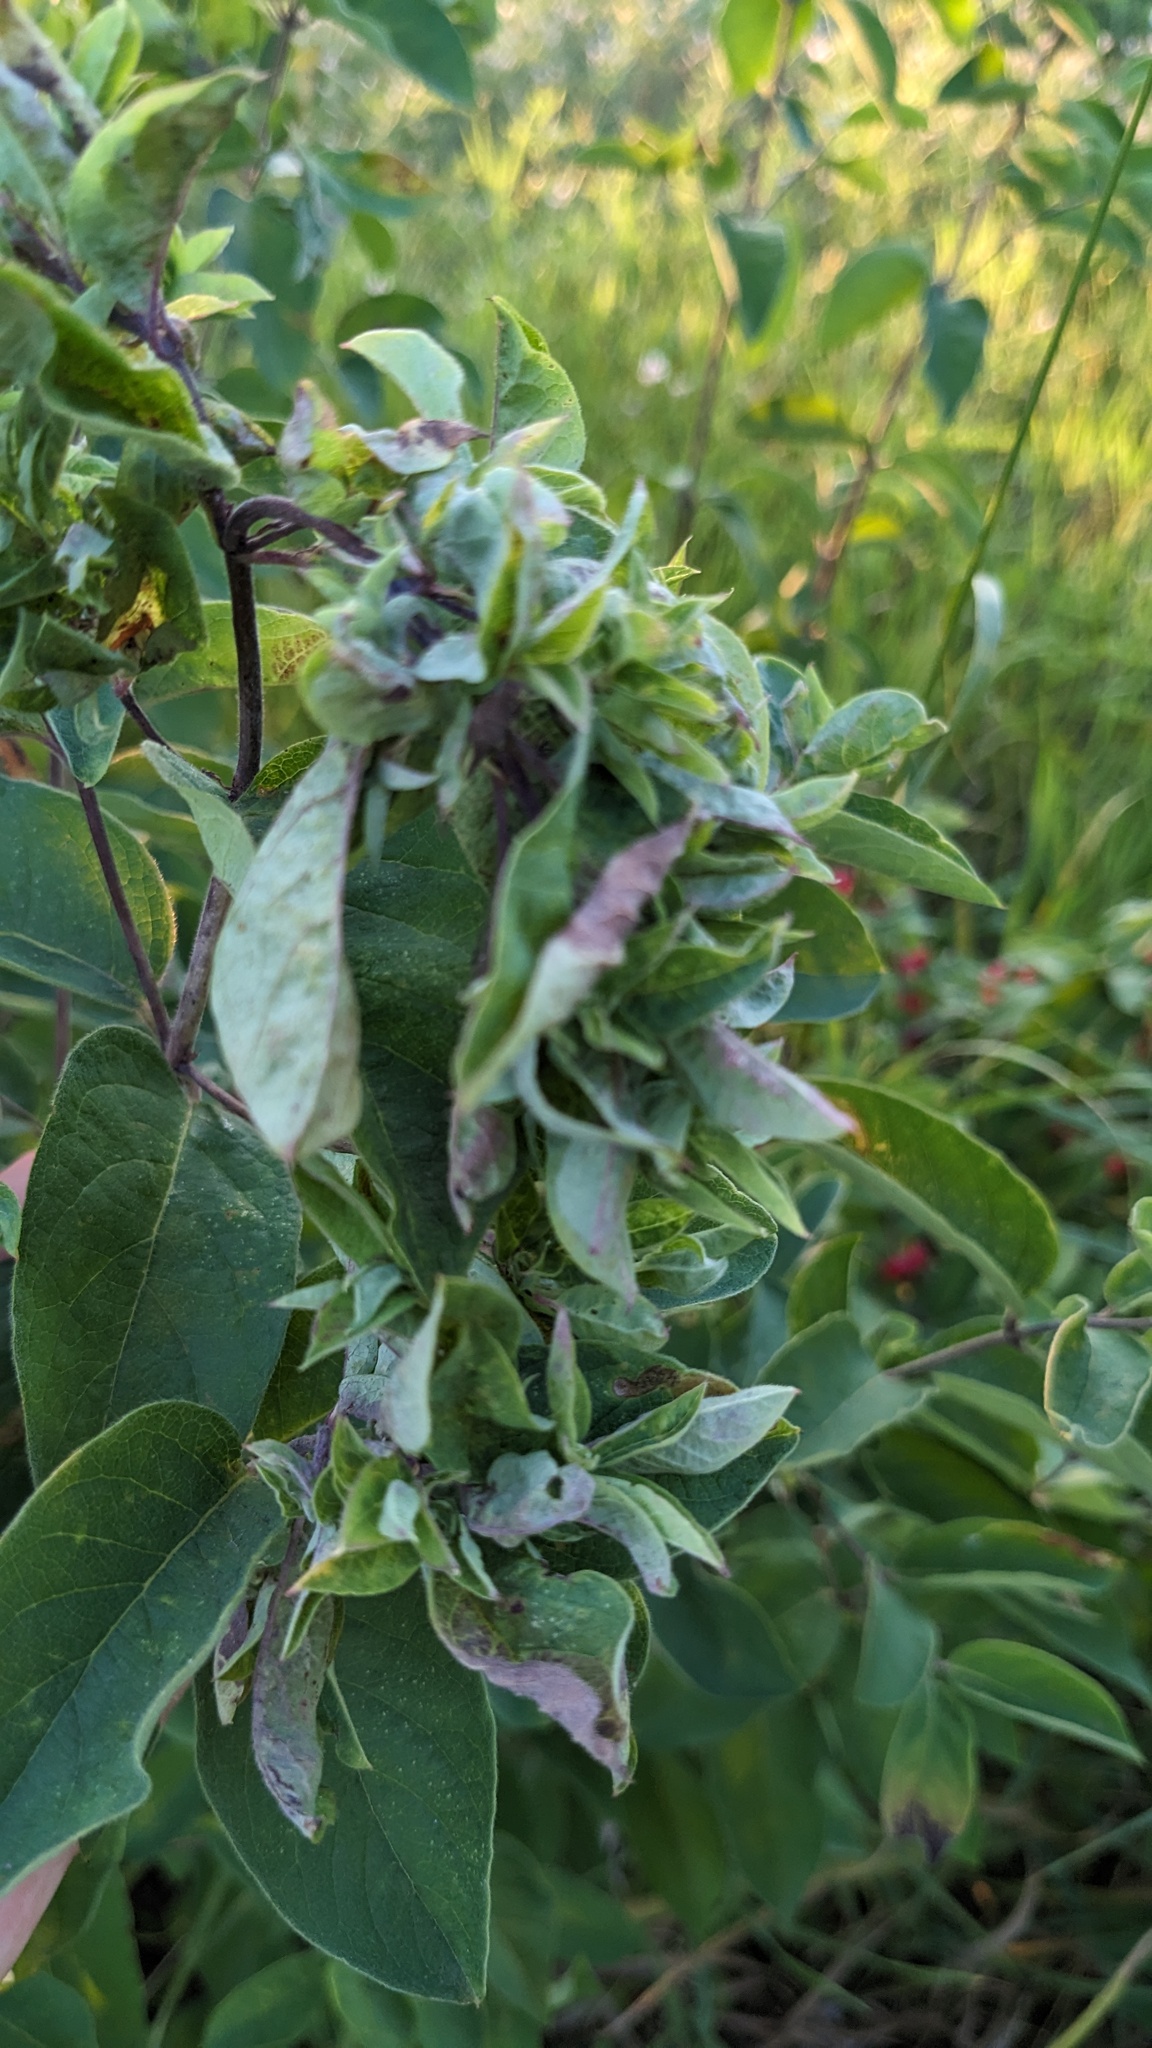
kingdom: Animalia
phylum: Arthropoda
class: Insecta
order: Hemiptera
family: Aphididae
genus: Hyadaphis
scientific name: Hyadaphis tataricae
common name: Honeysuckle witches' broom aphid
